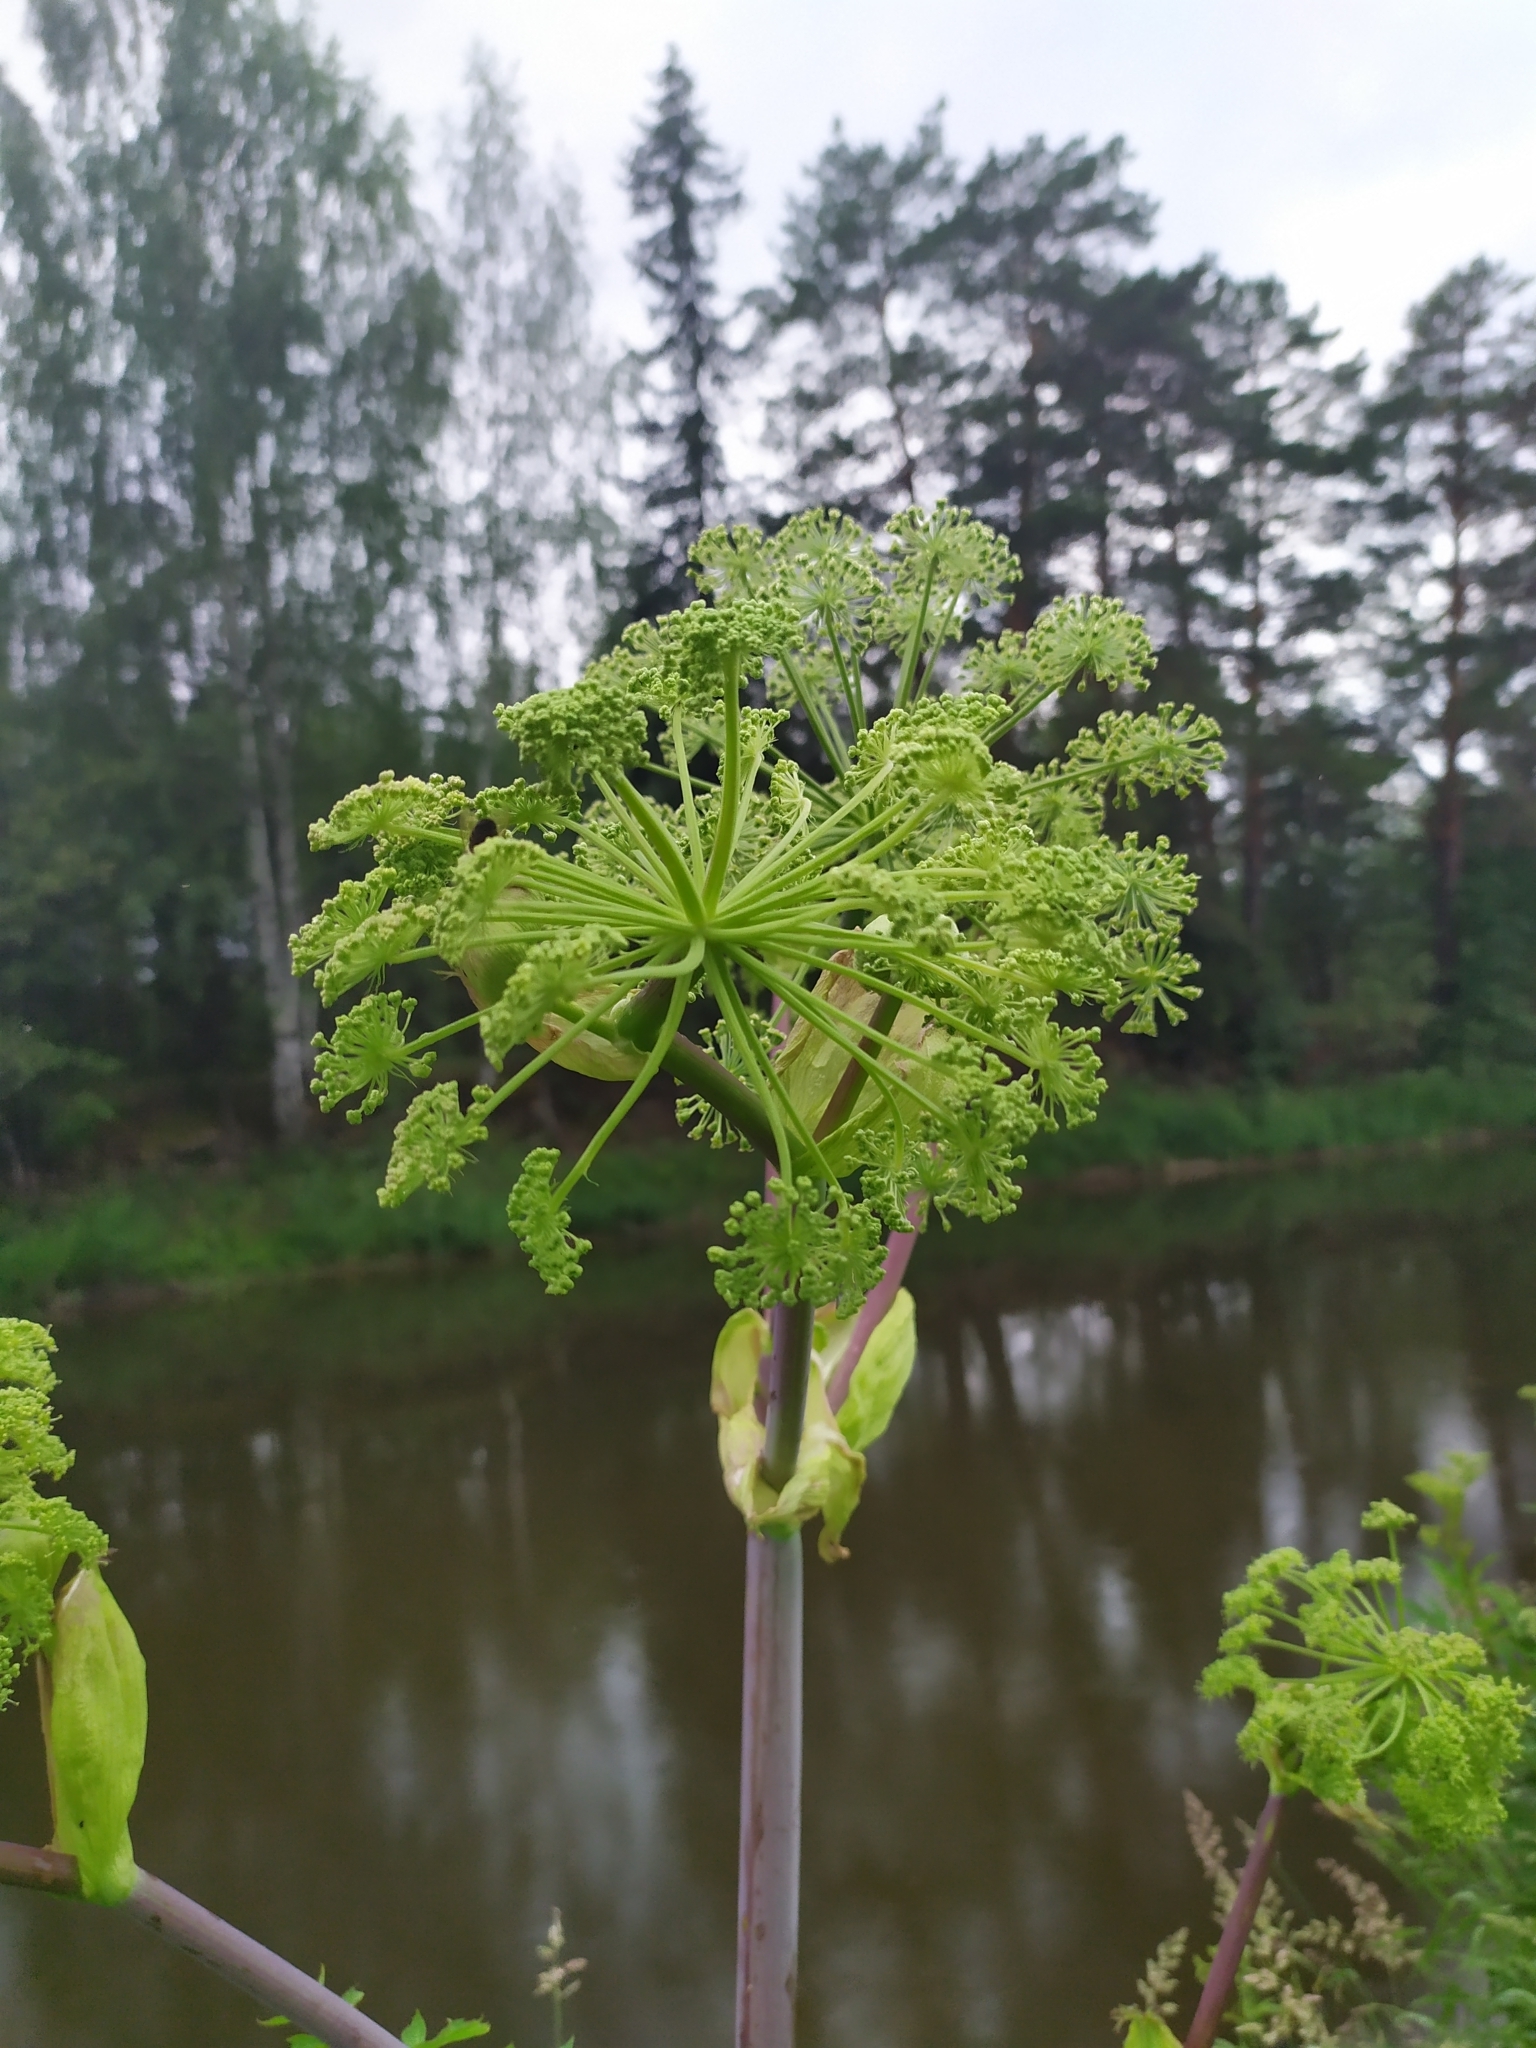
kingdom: Plantae
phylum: Tracheophyta
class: Magnoliopsida
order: Apiales
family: Apiaceae
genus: Angelica
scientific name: Angelica archangelica
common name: Garden angelica
